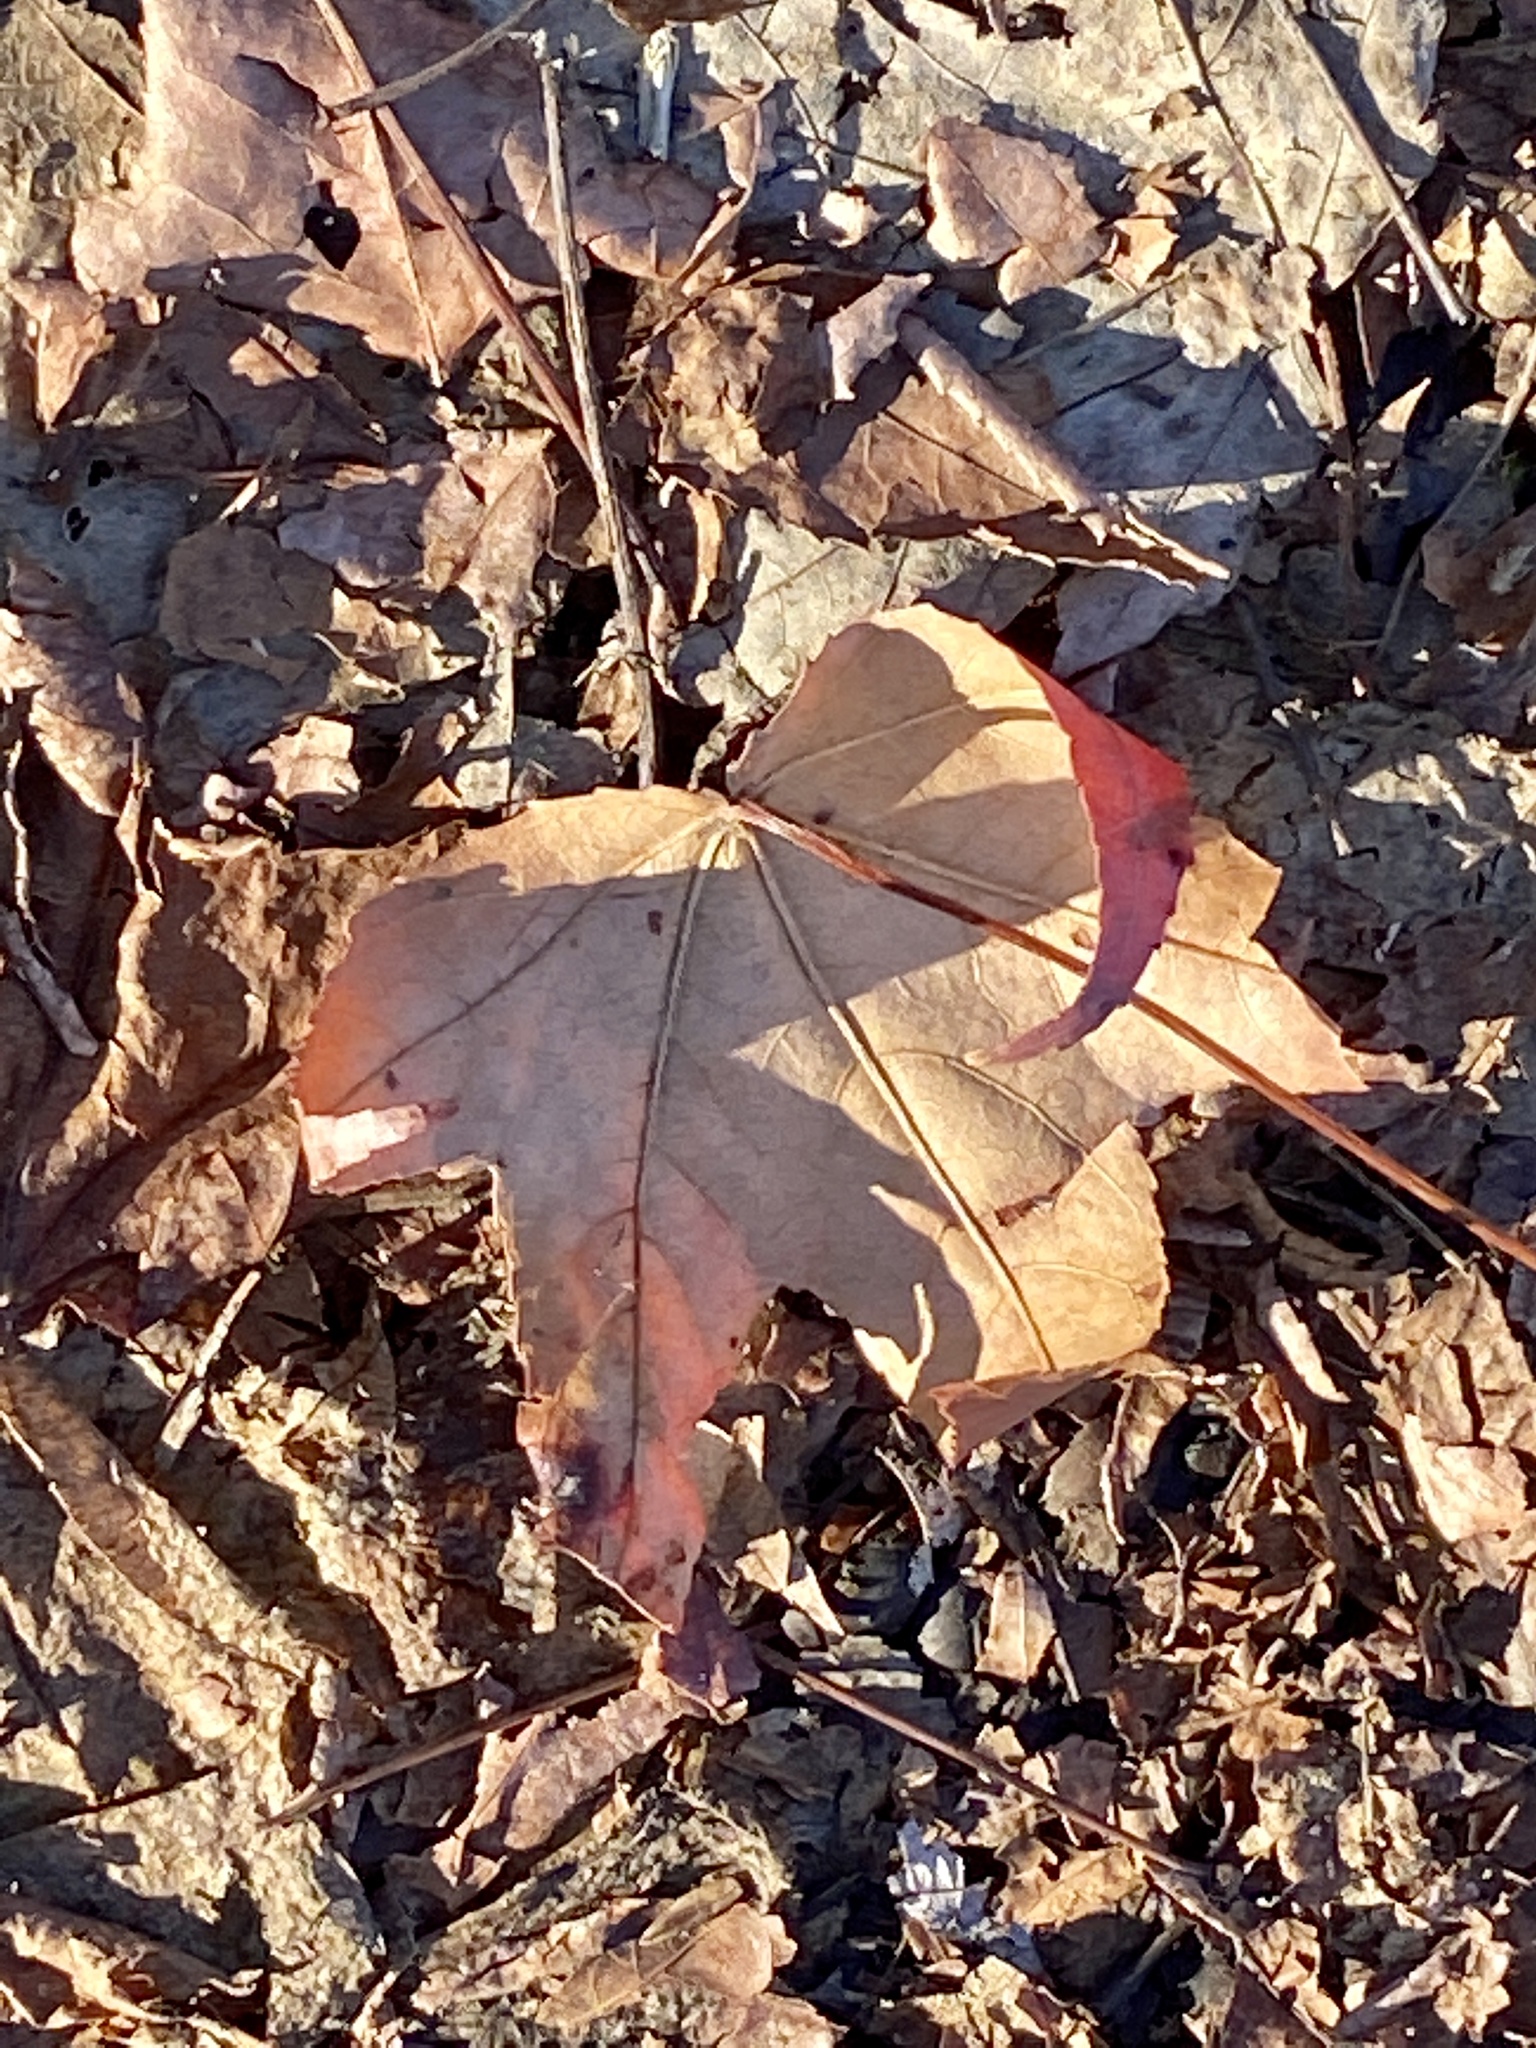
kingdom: Plantae
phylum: Tracheophyta
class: Magnoliopsida
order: Saxifragales
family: Altingiaceae
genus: Liquidambar
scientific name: Liquidambar styraciflua
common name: Sweet gum
